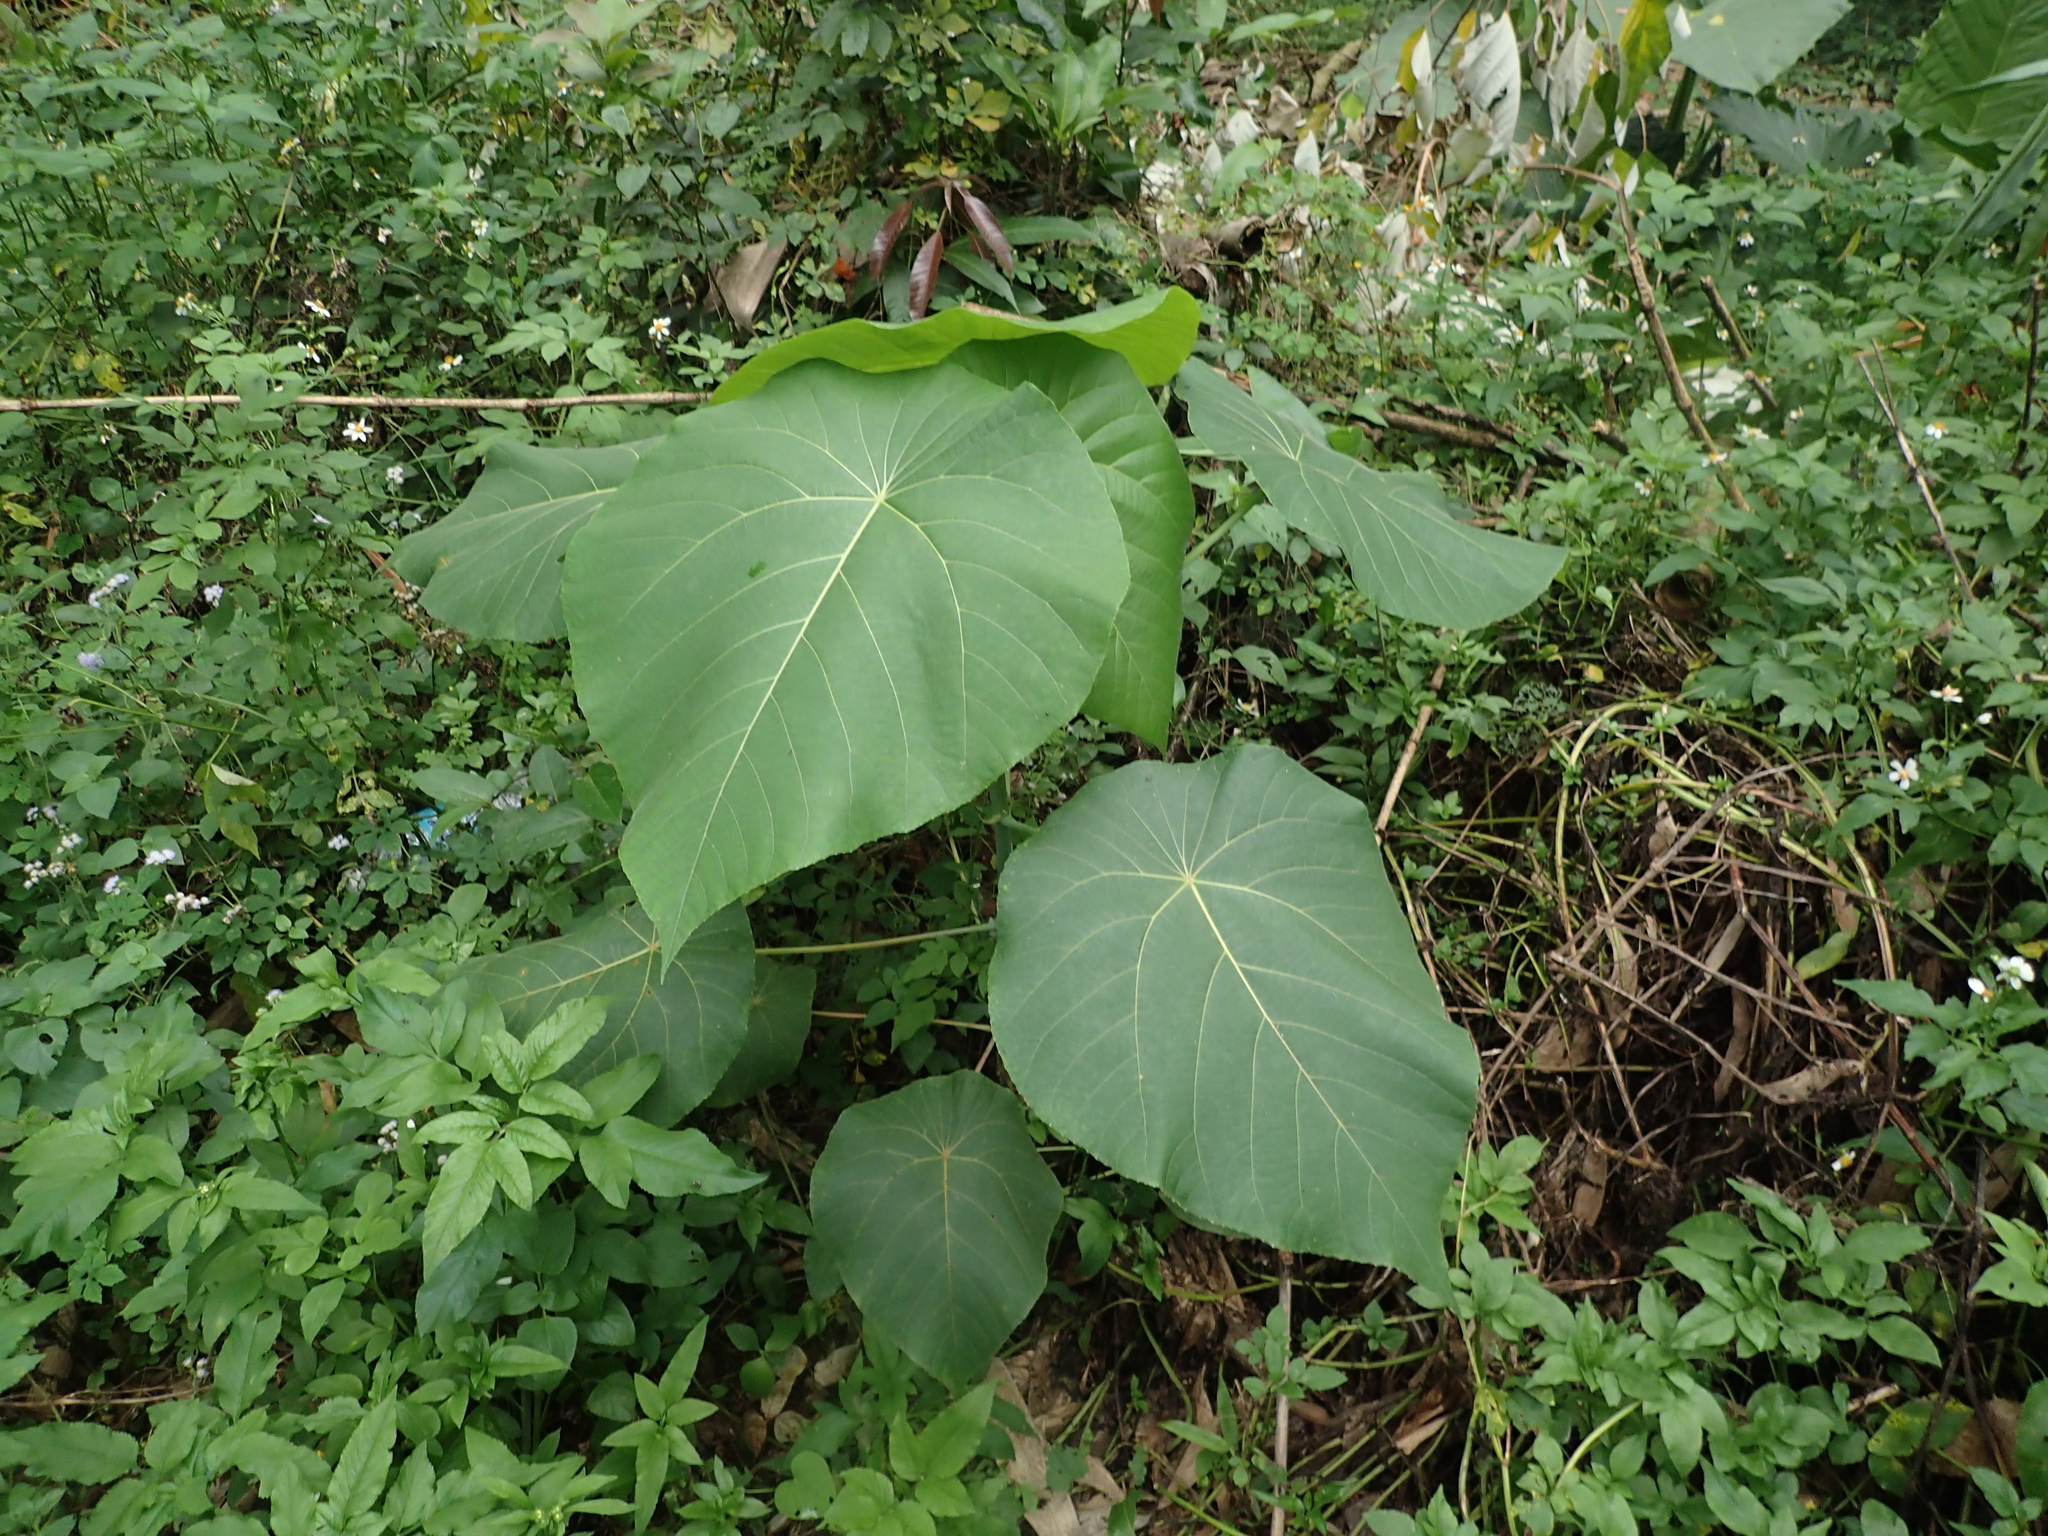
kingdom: Plantae
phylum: Tracheophyta
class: Magnoliopsida
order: Malpighiales
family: Euphorbiaceae
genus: Macaranga
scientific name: Macaranga tanarius
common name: Parasol leaf tree
